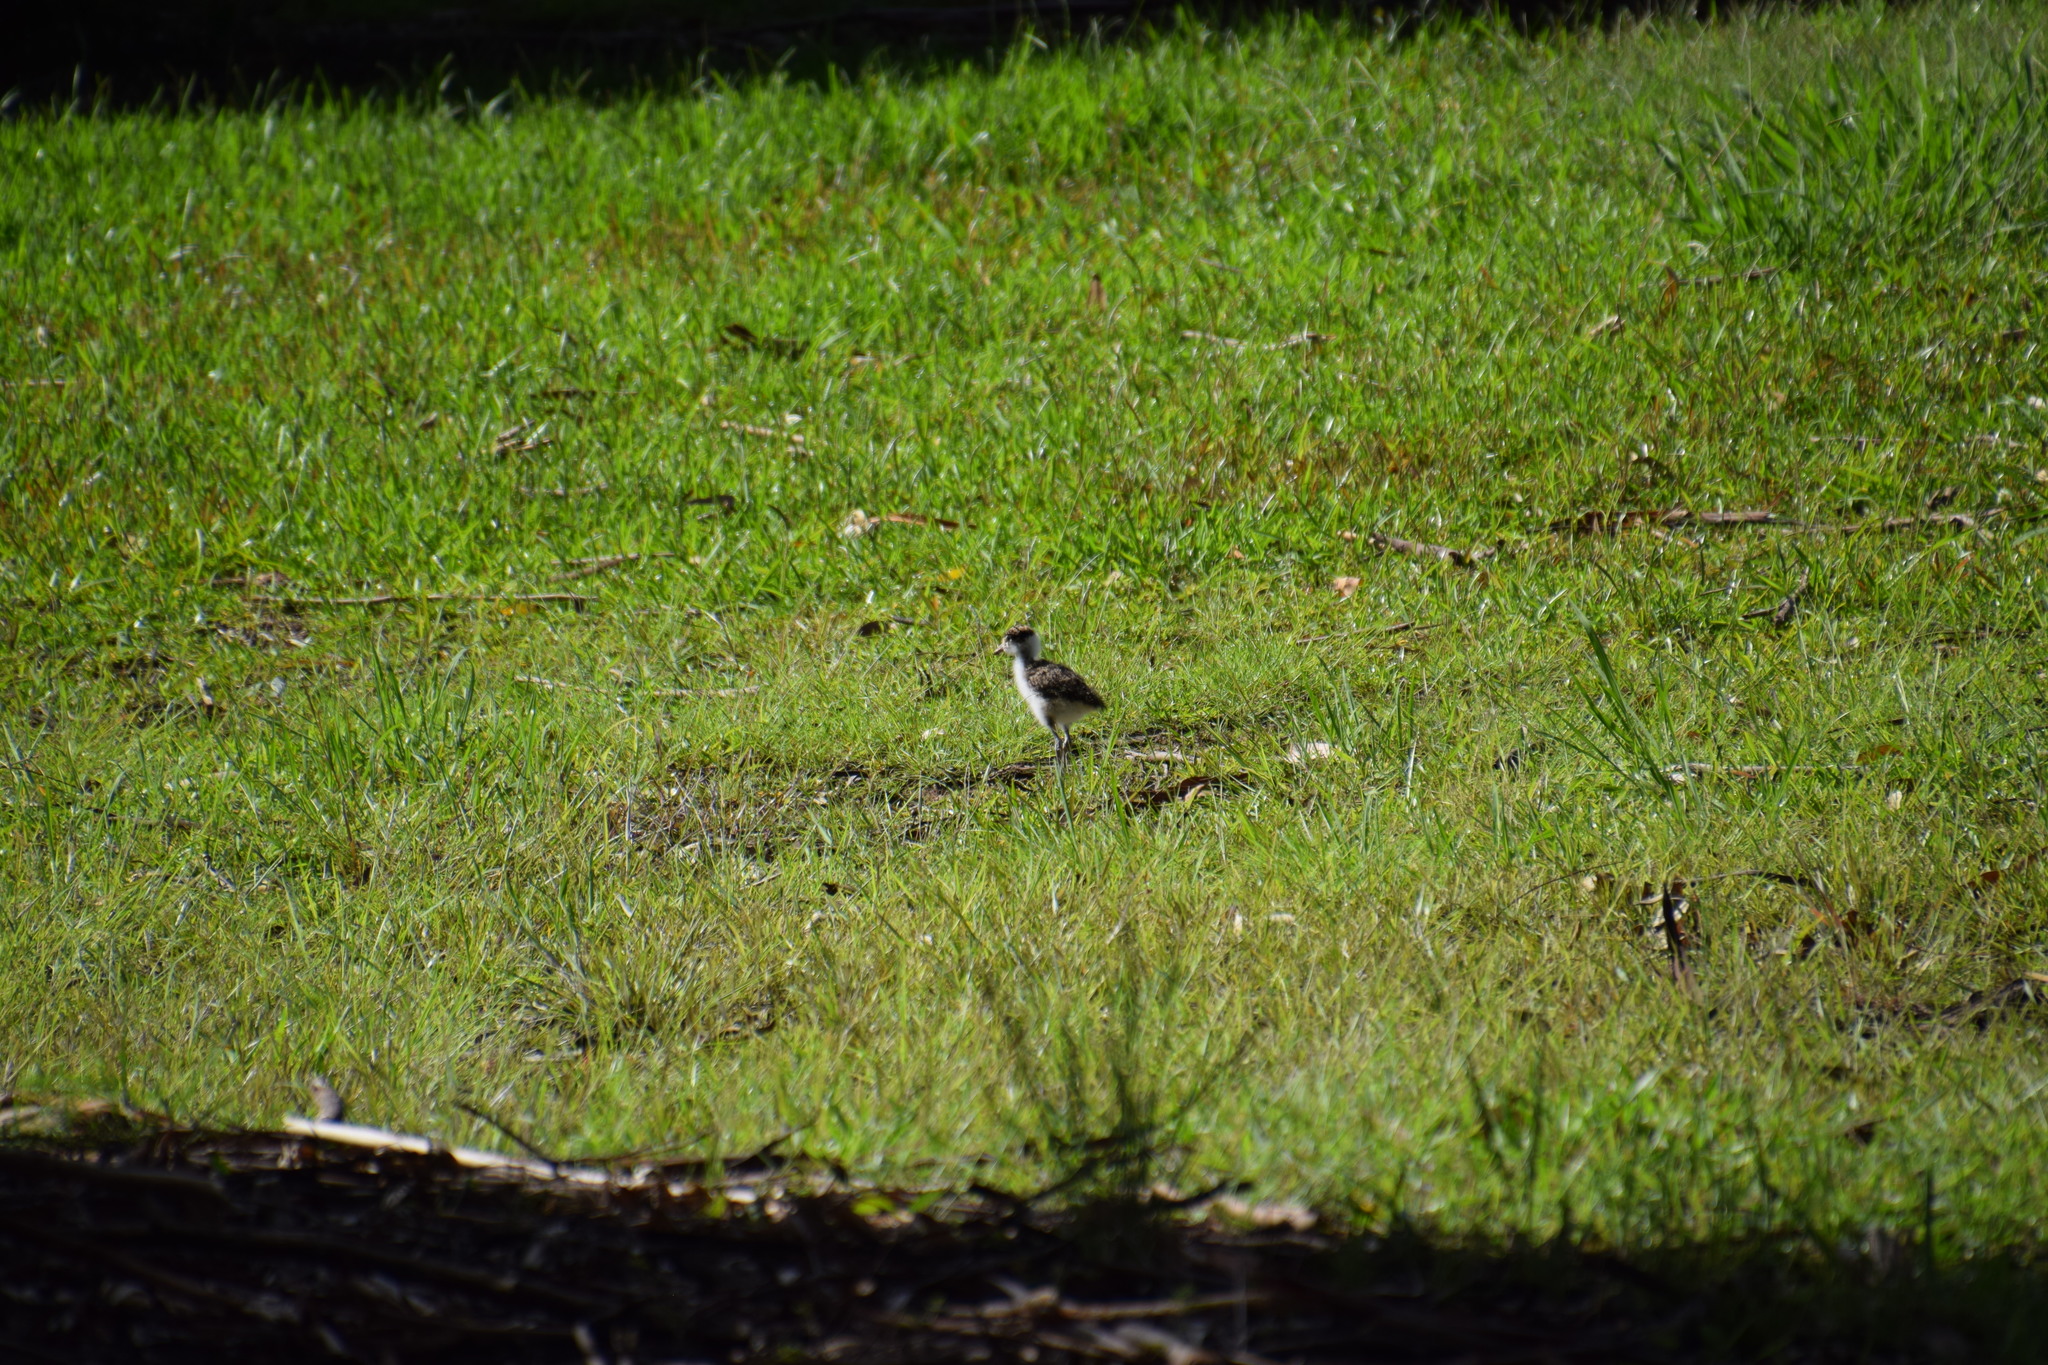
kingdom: Animalia
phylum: Chordata
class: Aves
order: Charadriiformes
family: Charadriidae
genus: Vanellus
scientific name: Vanellus miles
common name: Masked lapwing
